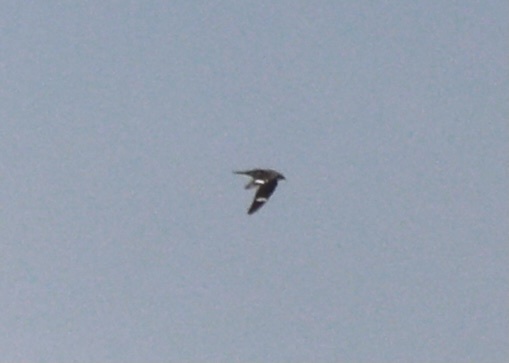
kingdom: Animalia
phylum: Chordata
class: Aves
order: Caprimulgiformes
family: Caprimulgidae
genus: Chordeiles
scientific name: Chordeiles minor
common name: Common nighthawk
